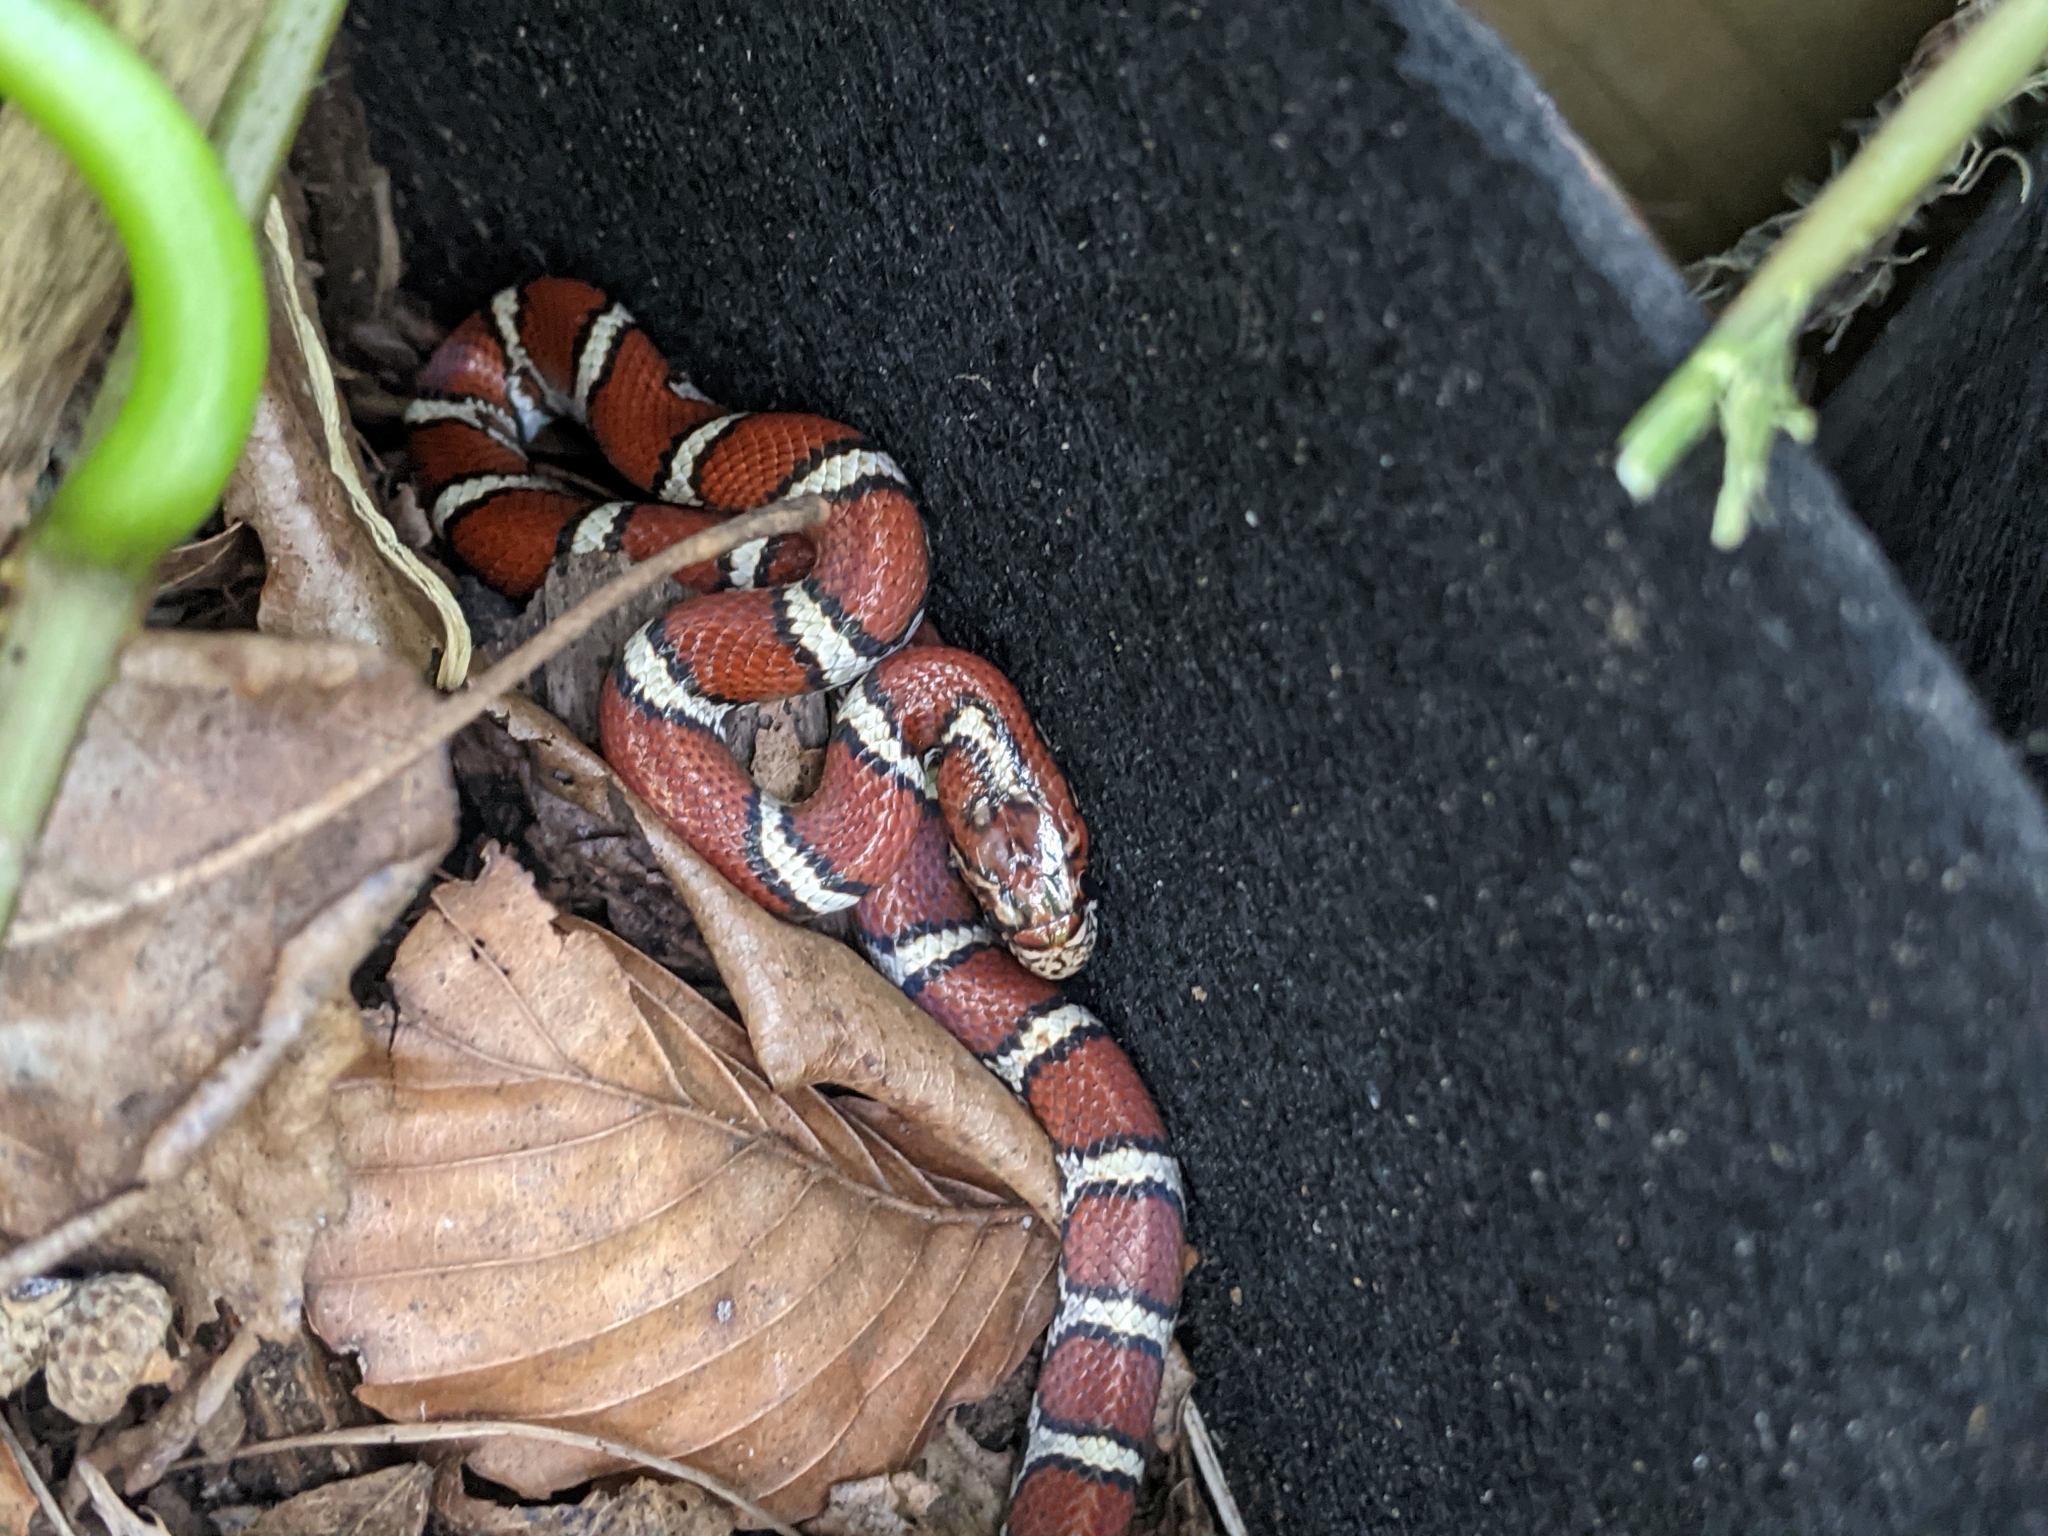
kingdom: Animalia
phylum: Chordata
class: Squamata
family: Colubridae
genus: Lampropeltis
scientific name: Lampropeltis triangulum
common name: Eastern milksnake
